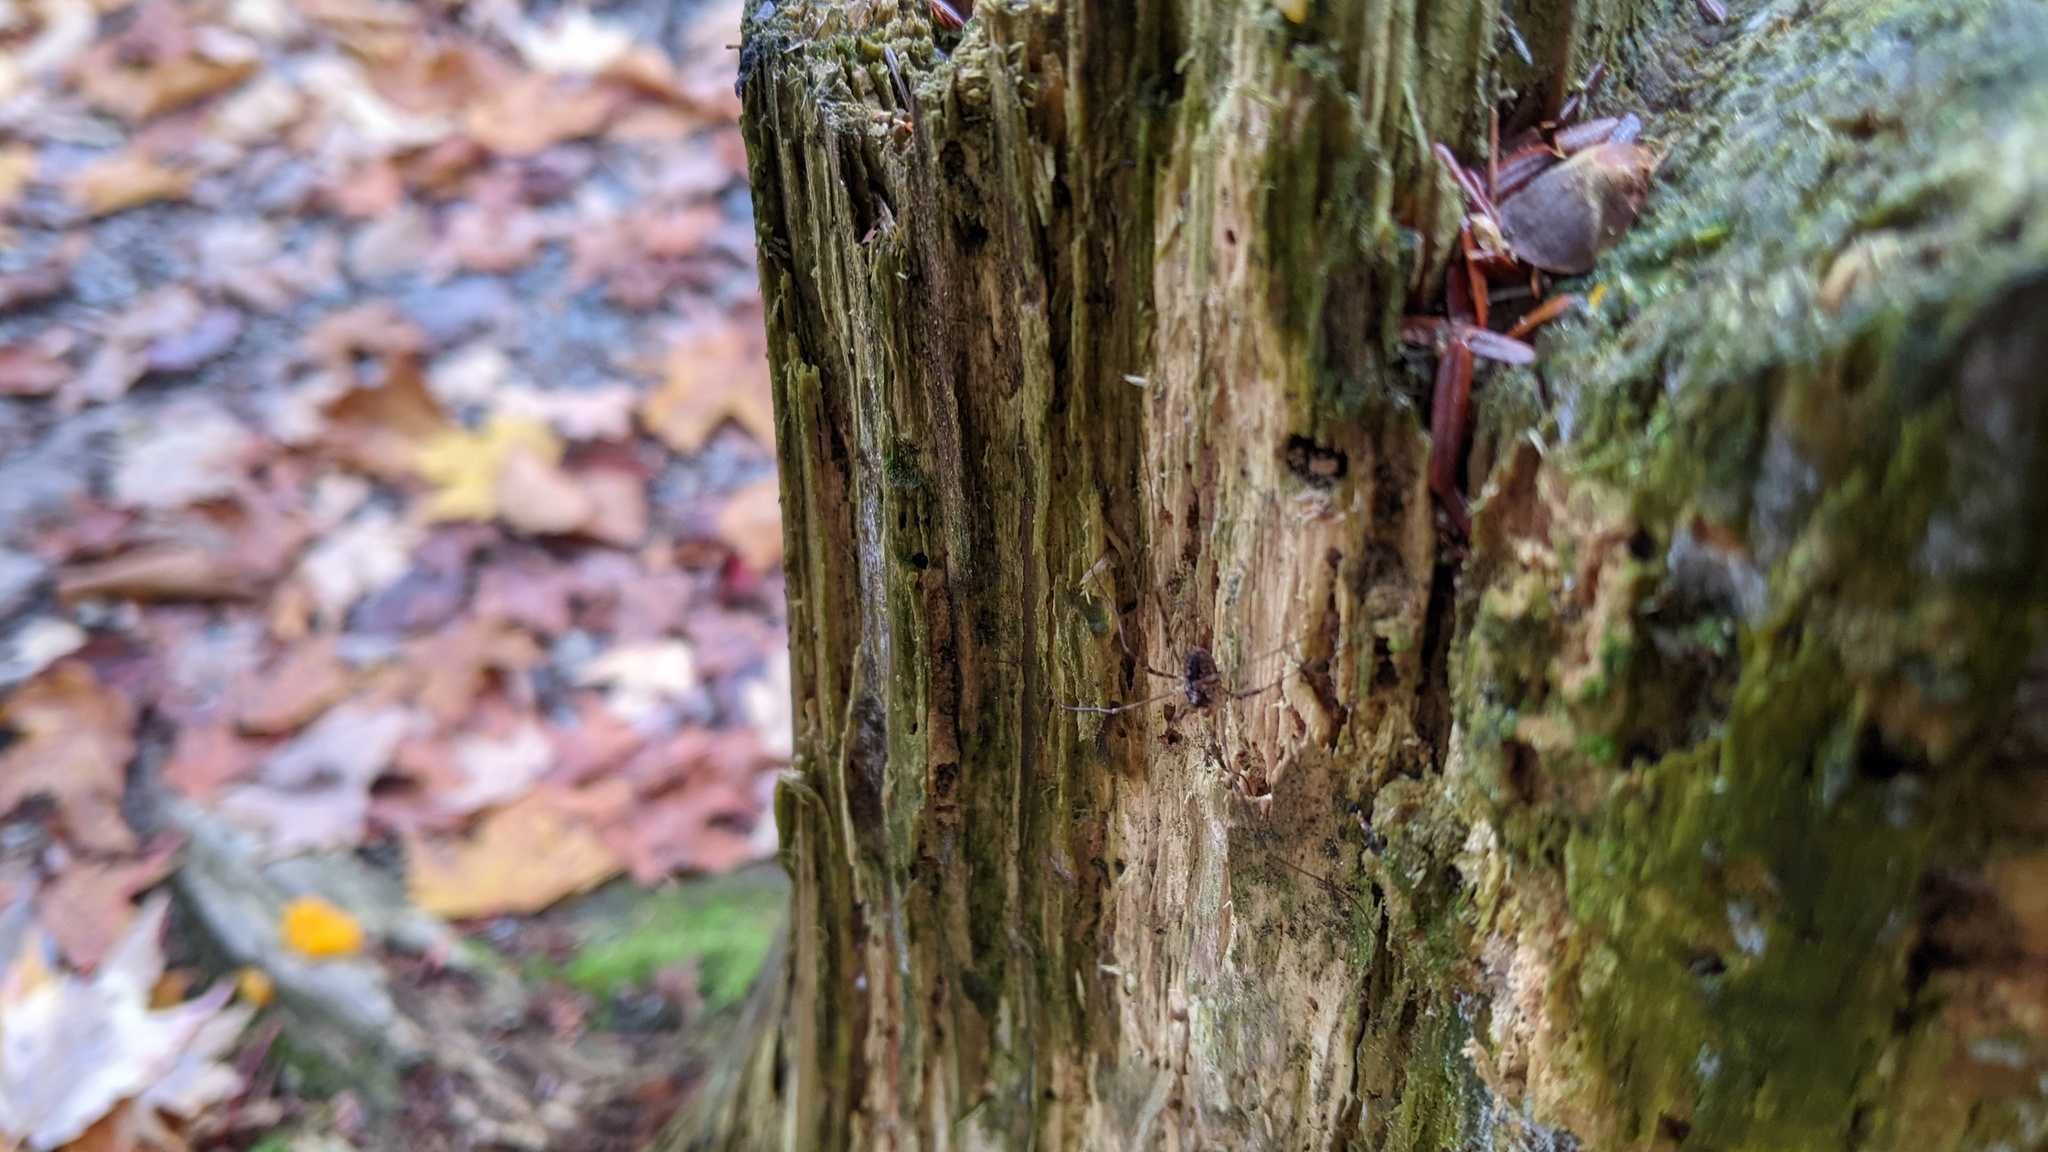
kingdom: Animalia
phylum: Arthropoda
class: Arachnida
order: Opiliones
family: Phalangiidae
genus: Odiellus
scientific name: Odiellus pictus
